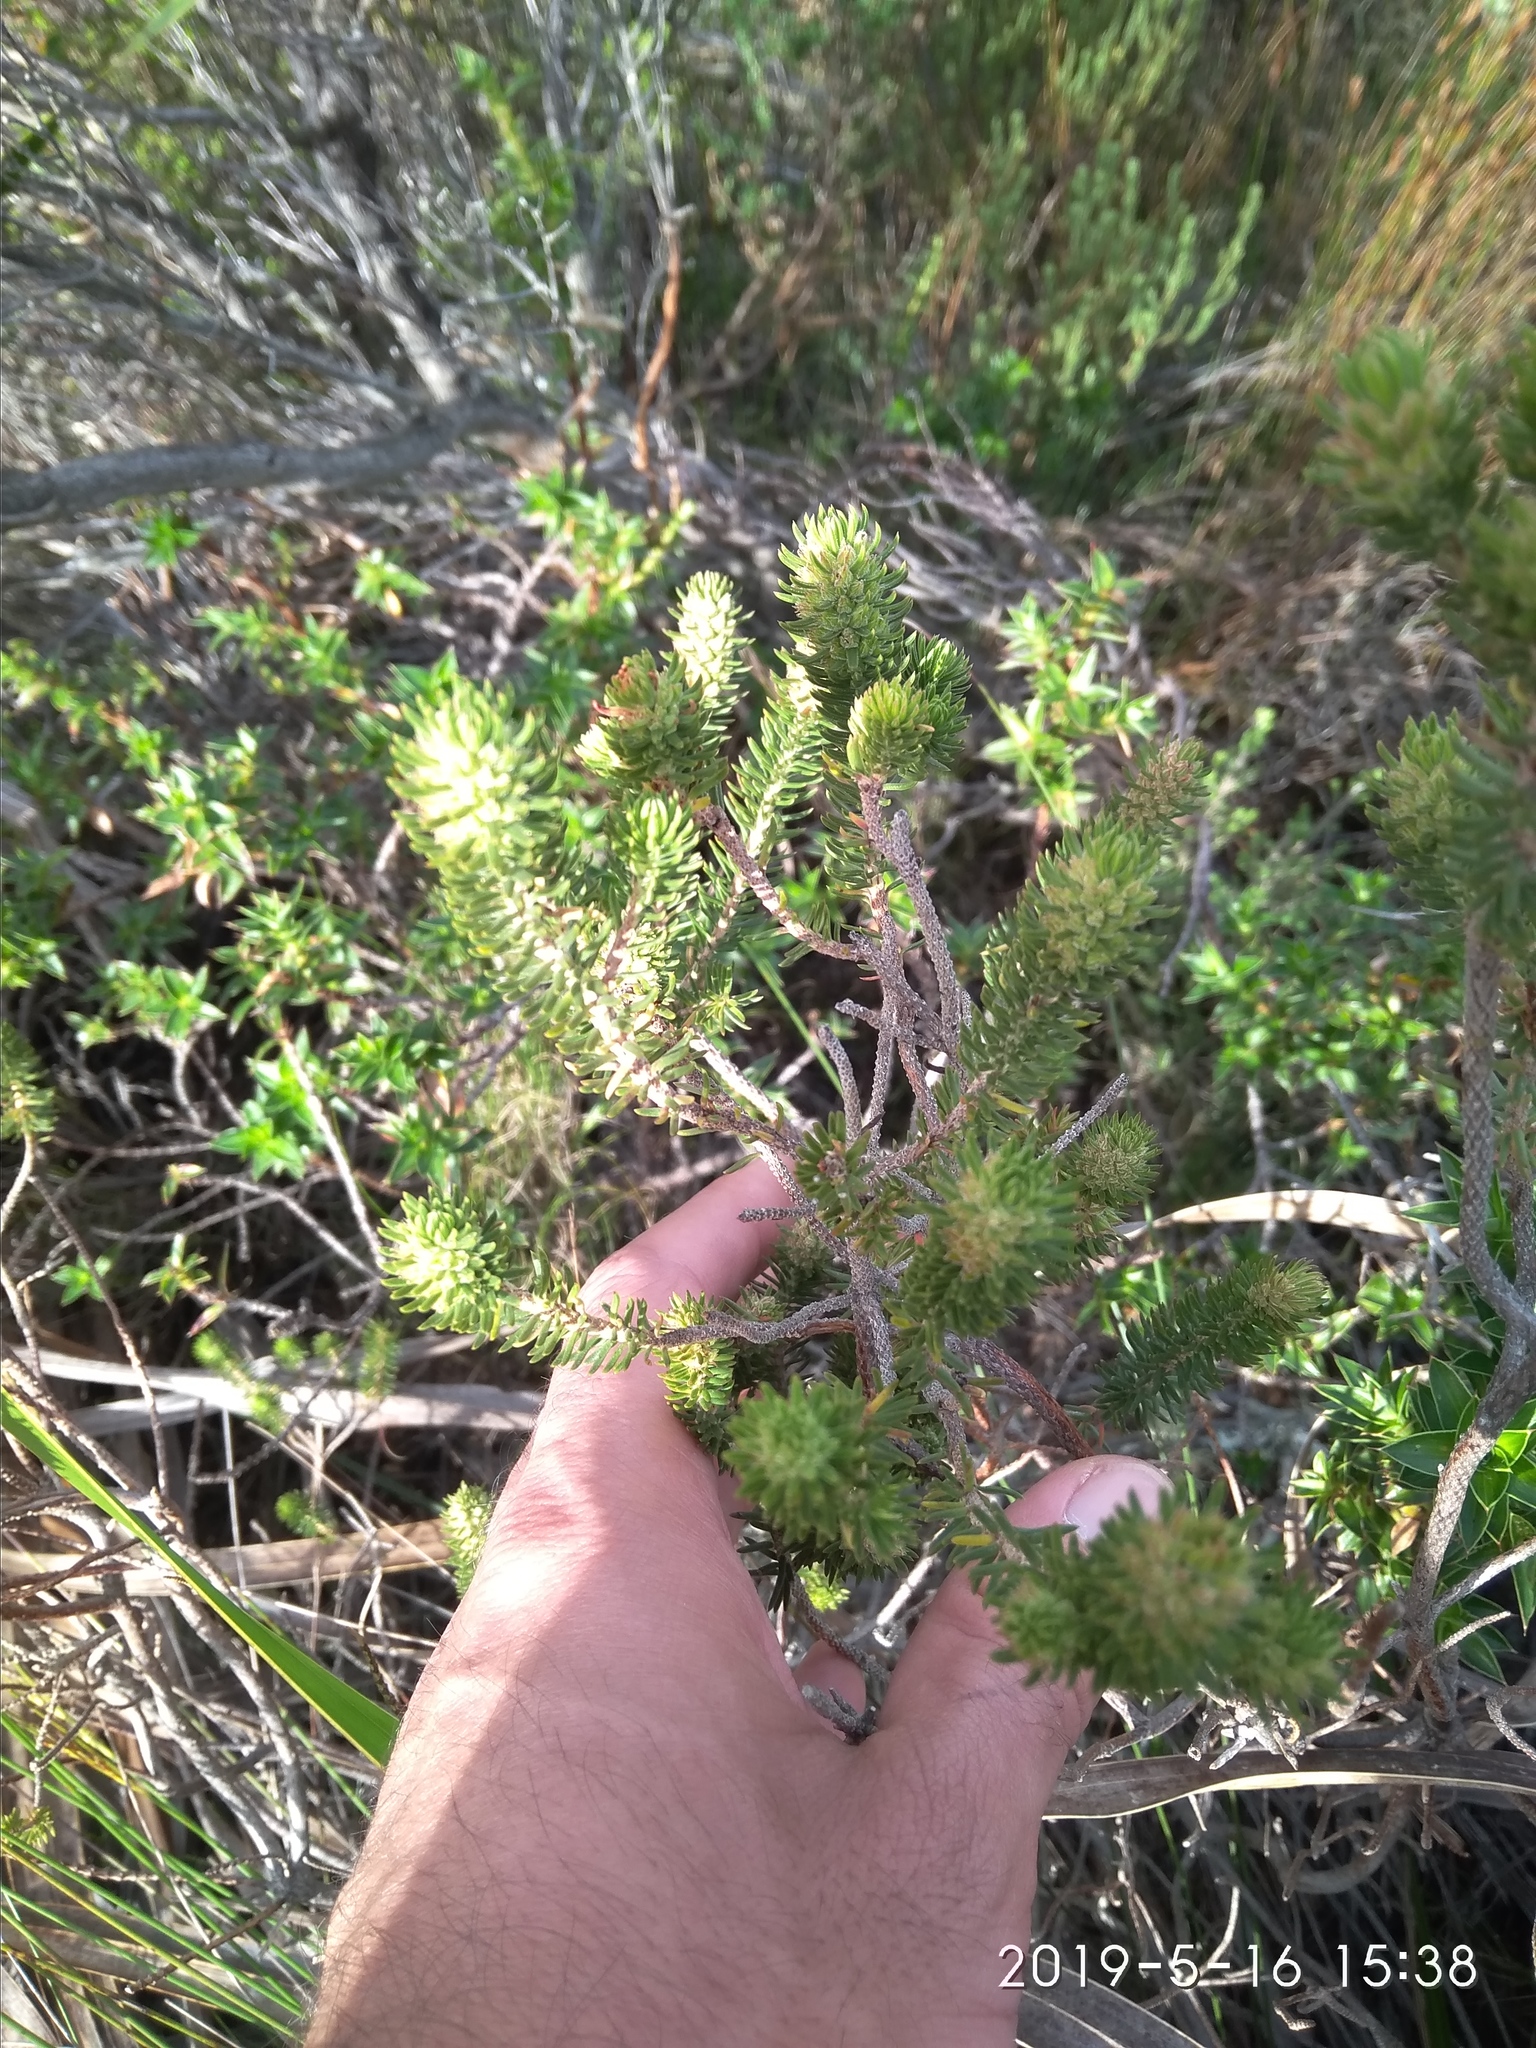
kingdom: Plantae
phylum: Tracheophyta
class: Magnoliopsida
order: Ericales
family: Ericaceae
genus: Erica
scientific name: Erica abietina
